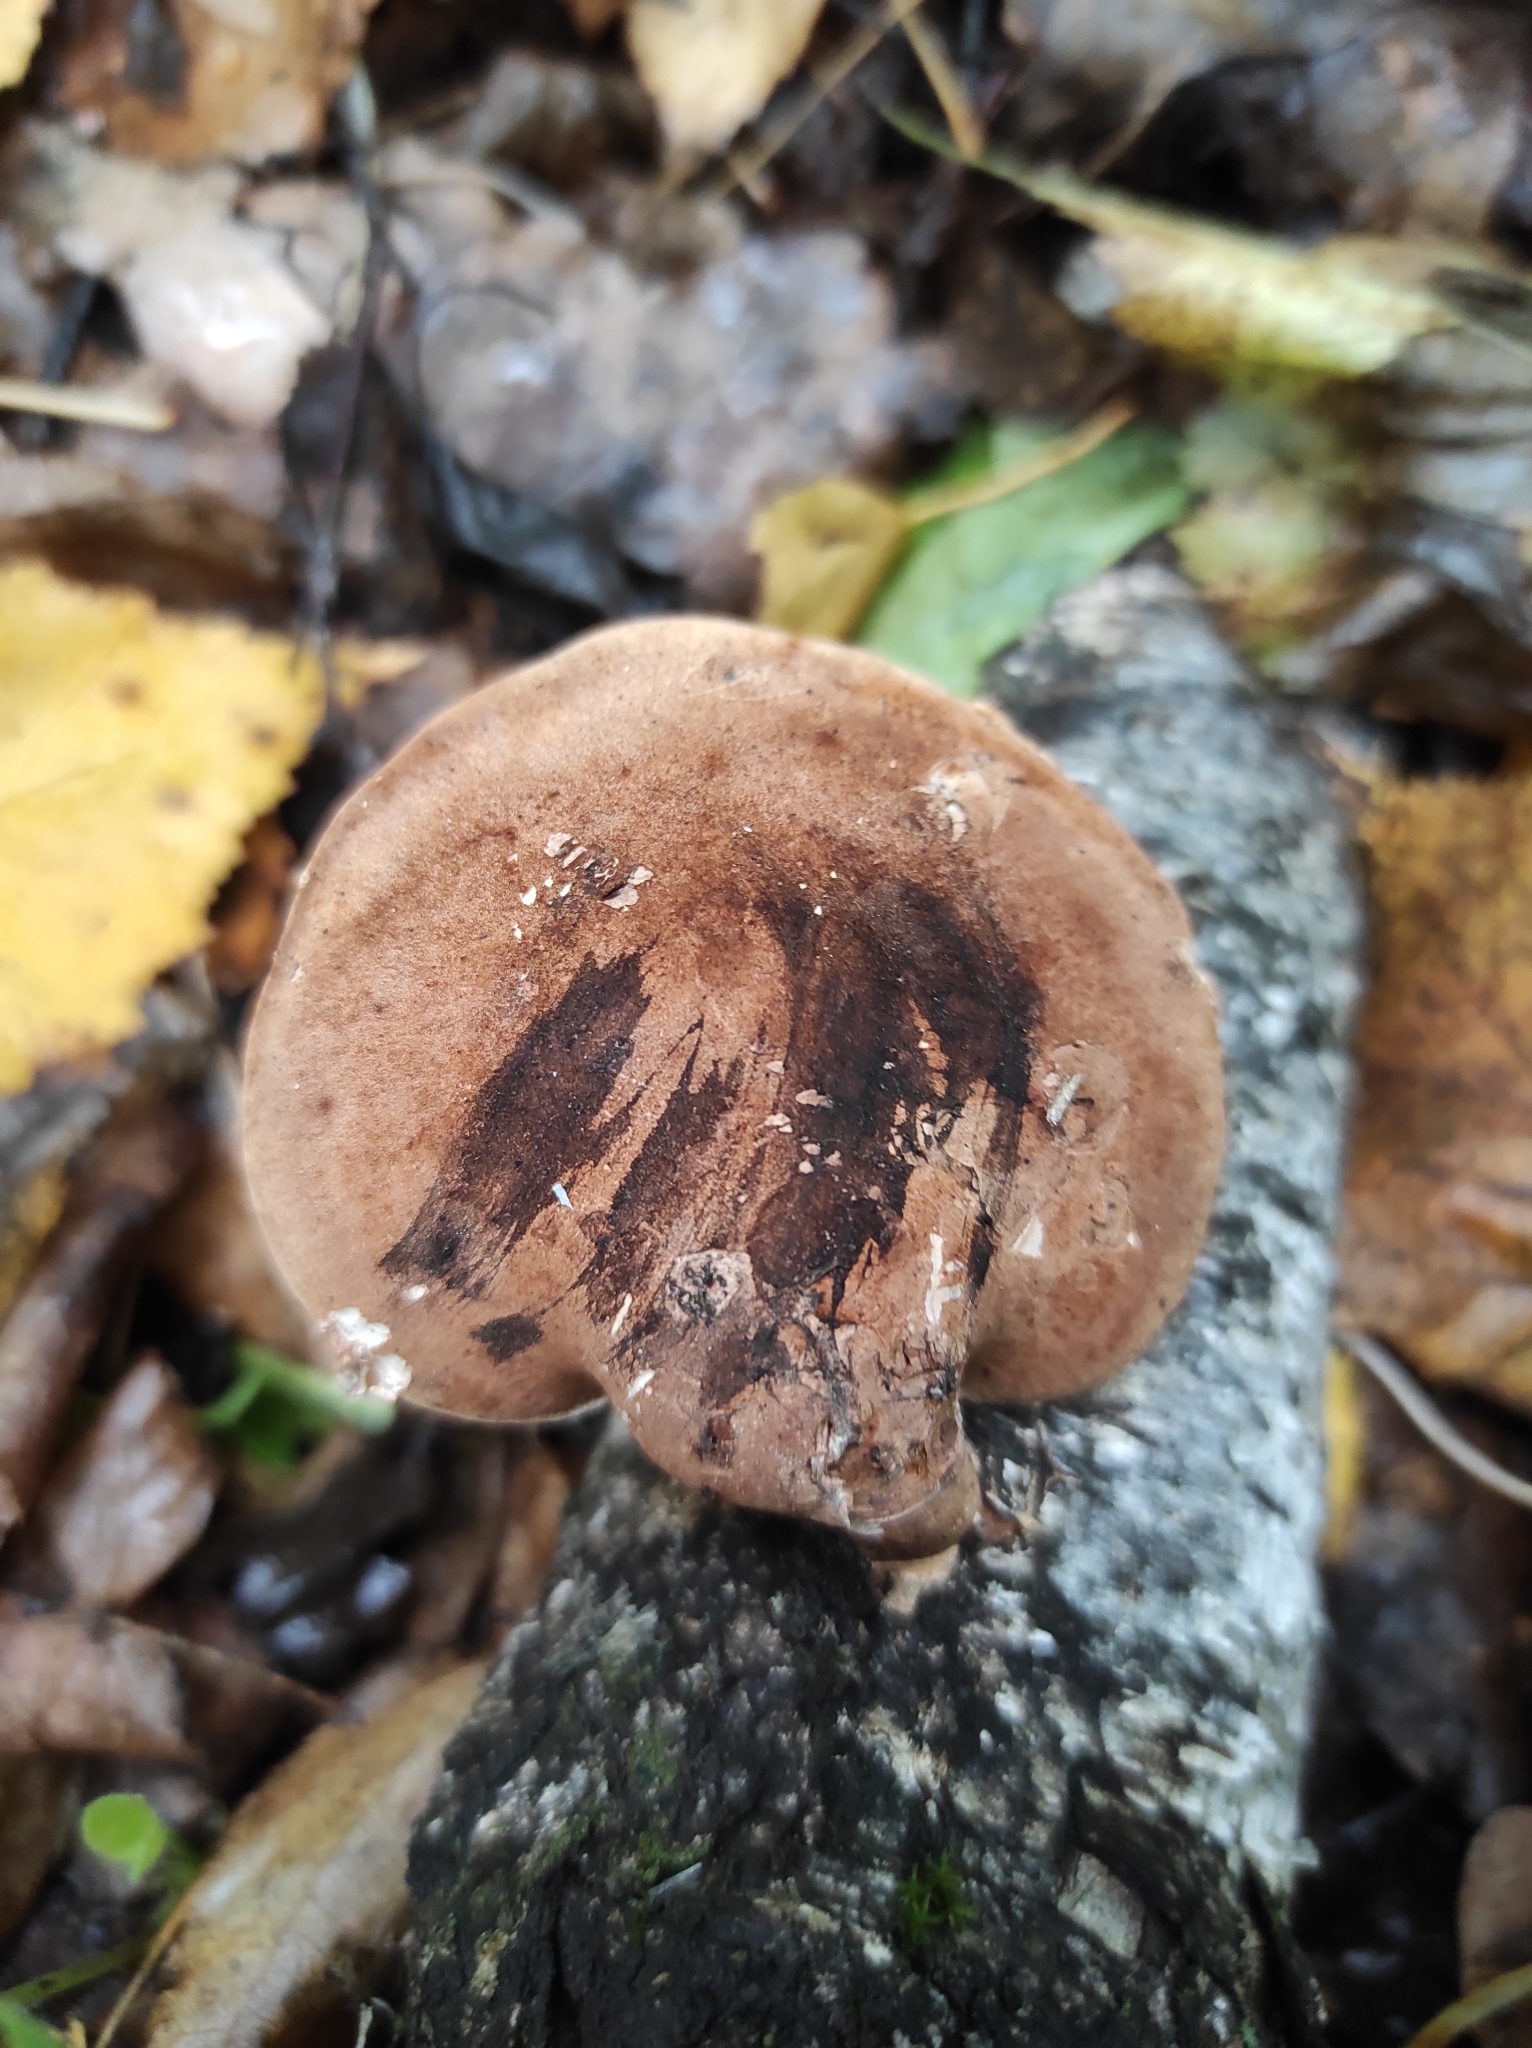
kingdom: Fungi
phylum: Basidiomycota
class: Agaricomycetes
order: Polyporales
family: Fomitopsidaceae
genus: Fomitopsis
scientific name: Fomitopsis betulina
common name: Birch polypore
